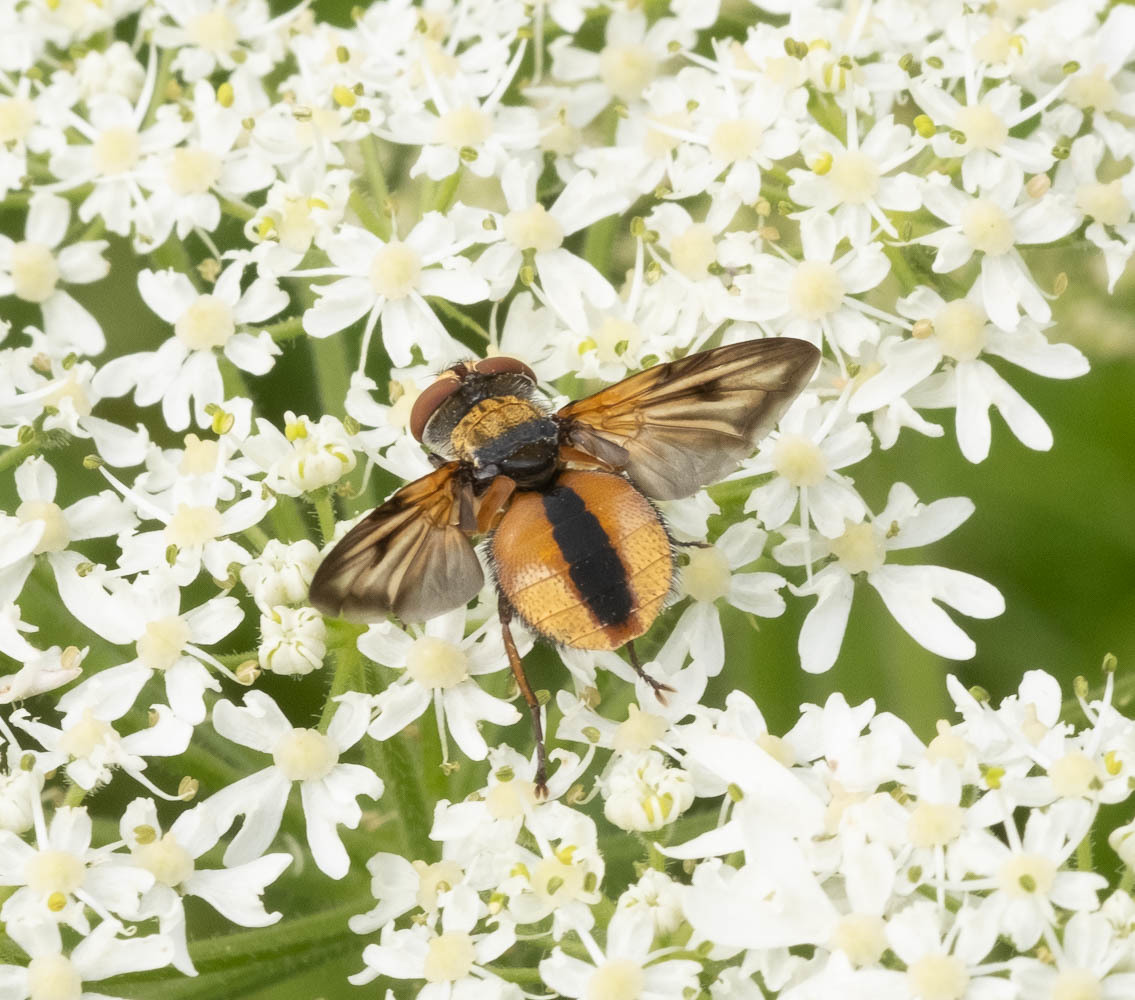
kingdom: Animalia
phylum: Arthropoda
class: Insecta
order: Diptera
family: Tachinidae
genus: Ectophasia
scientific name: Ectophasia crassipennis
